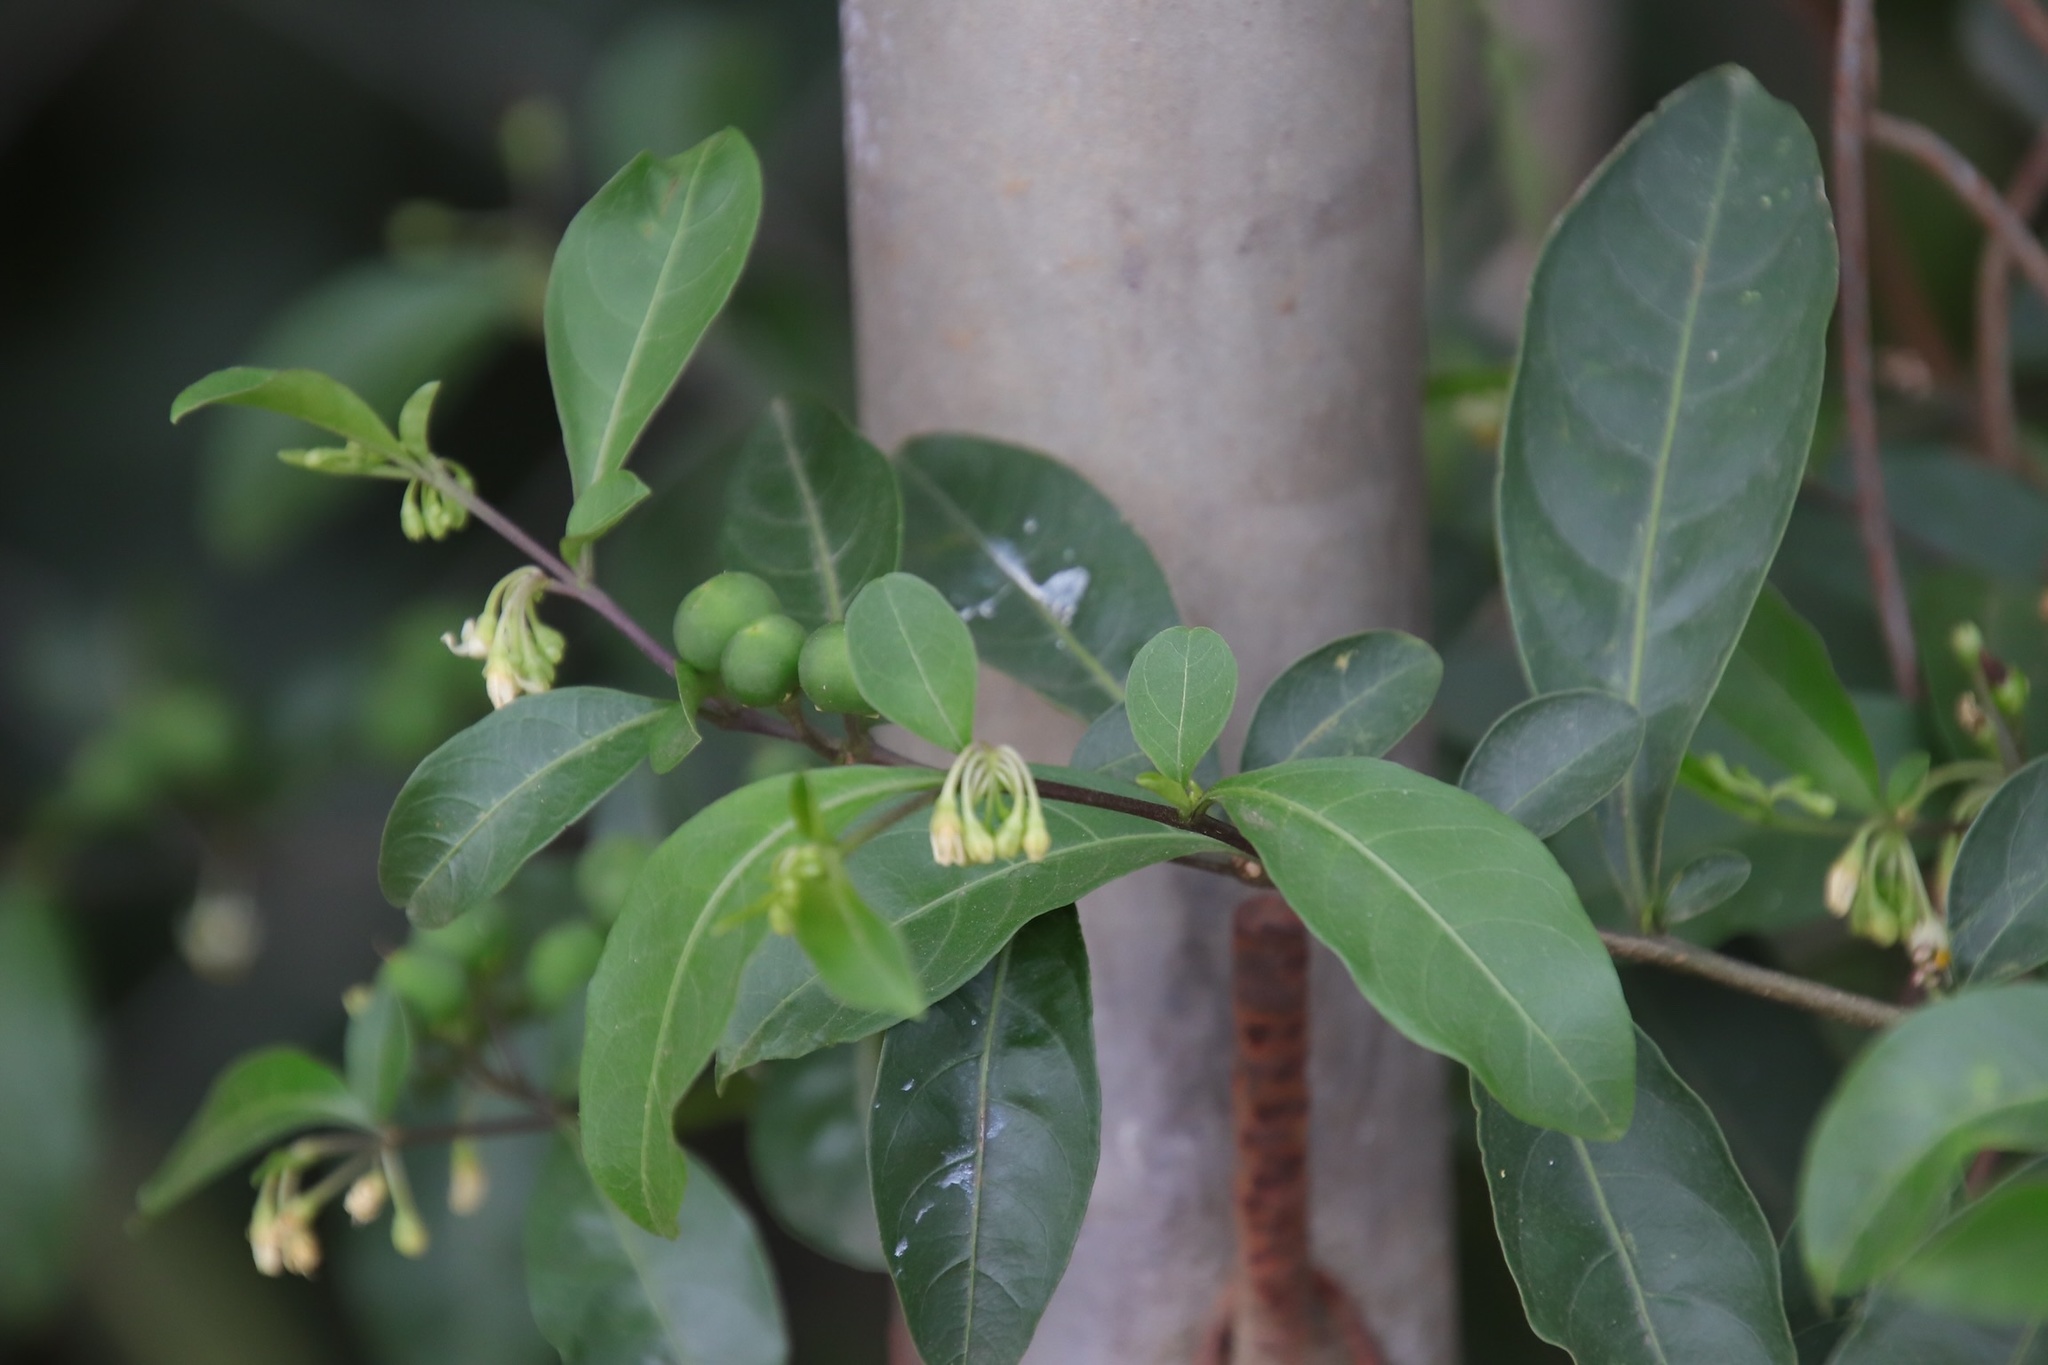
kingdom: Plantae
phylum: Tracheophyta
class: Magnoliopsida
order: Solanales
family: Solanaceae
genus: Solanum
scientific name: Solanum diphyllum
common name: Twoleaf nightshade
